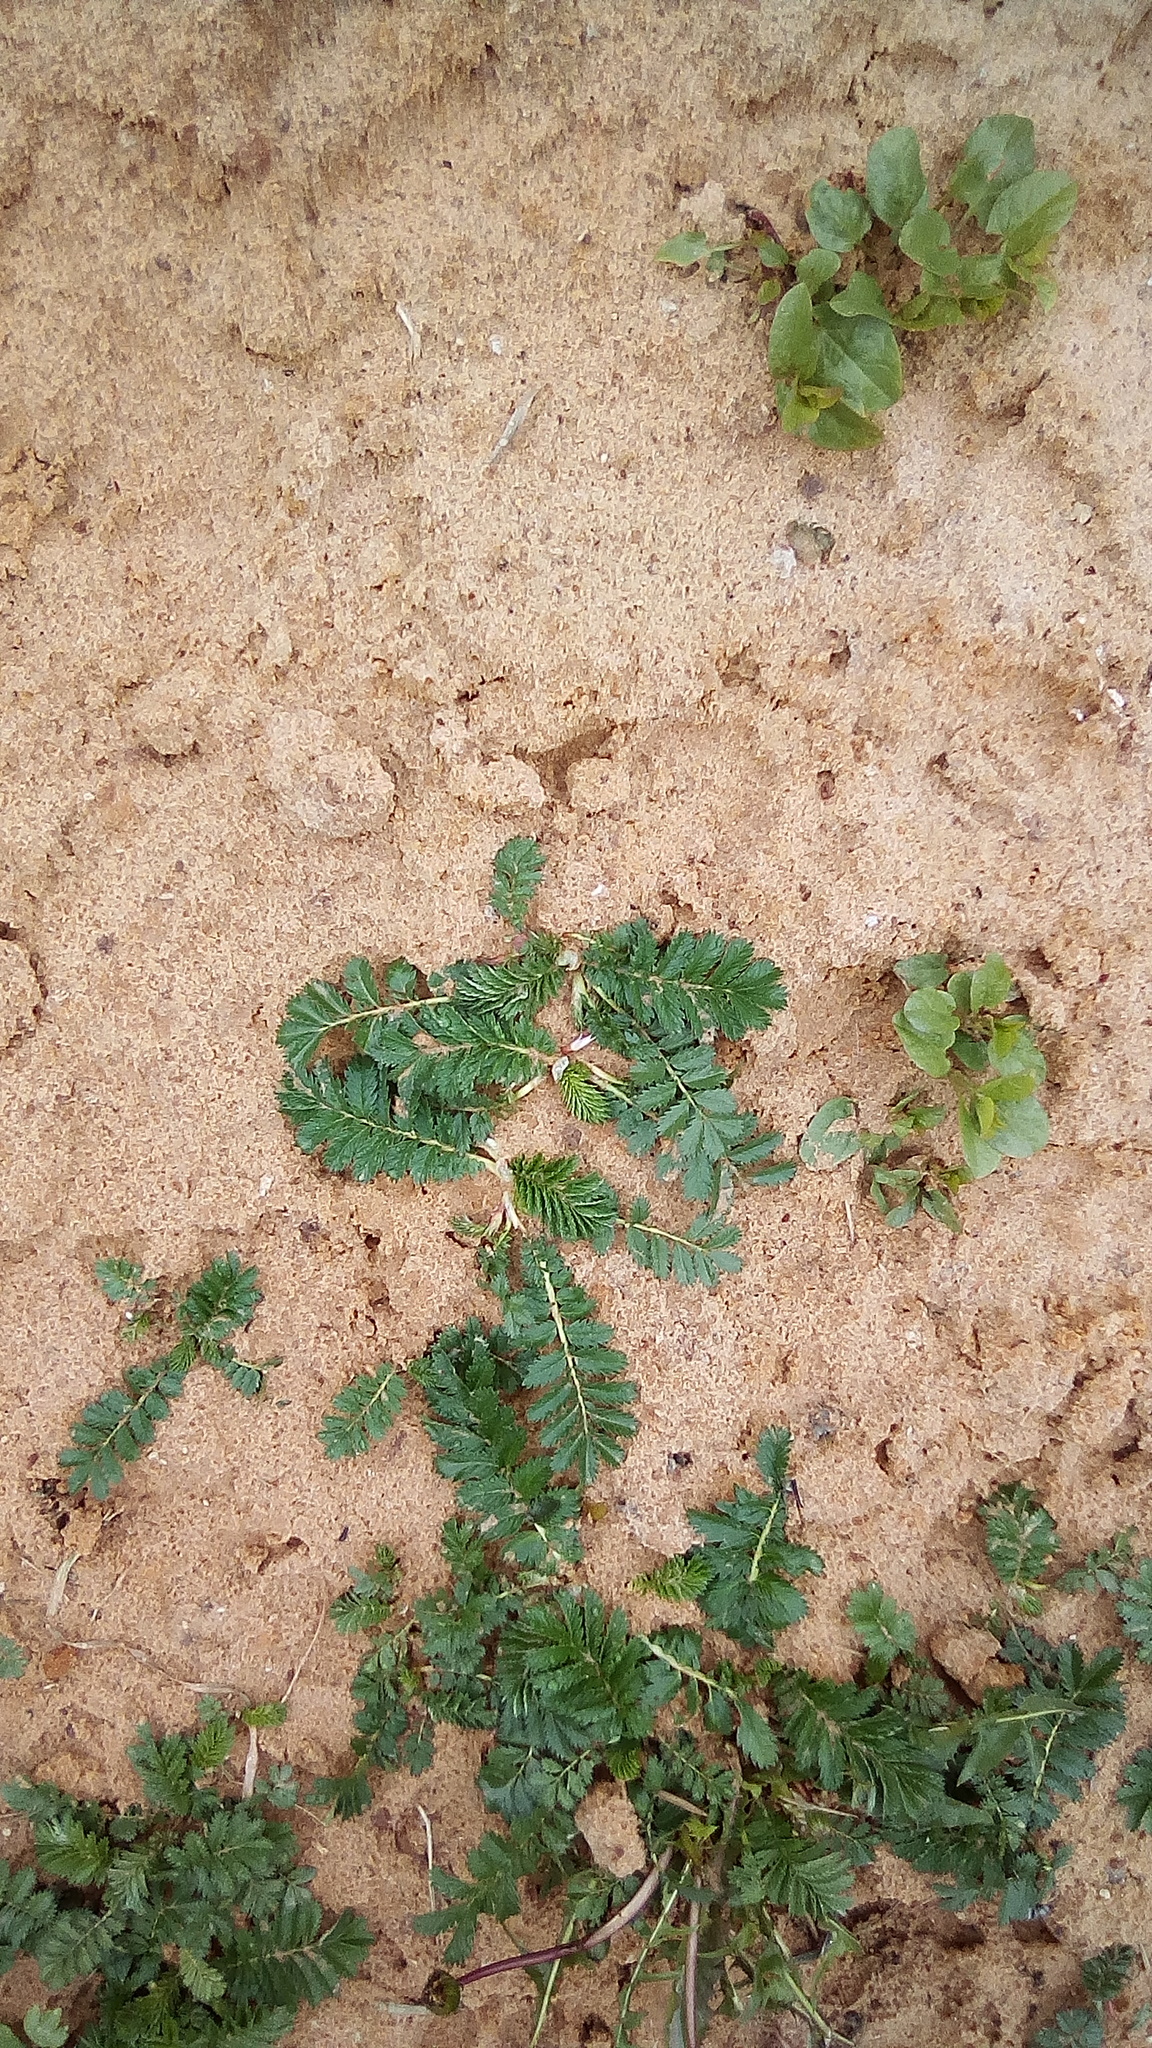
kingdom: Plantae
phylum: Tracheophyta
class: Magnoliopsida
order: Rosales
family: Rosaceae
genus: Argentina
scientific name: Argentina anserina
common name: Common silverweed
